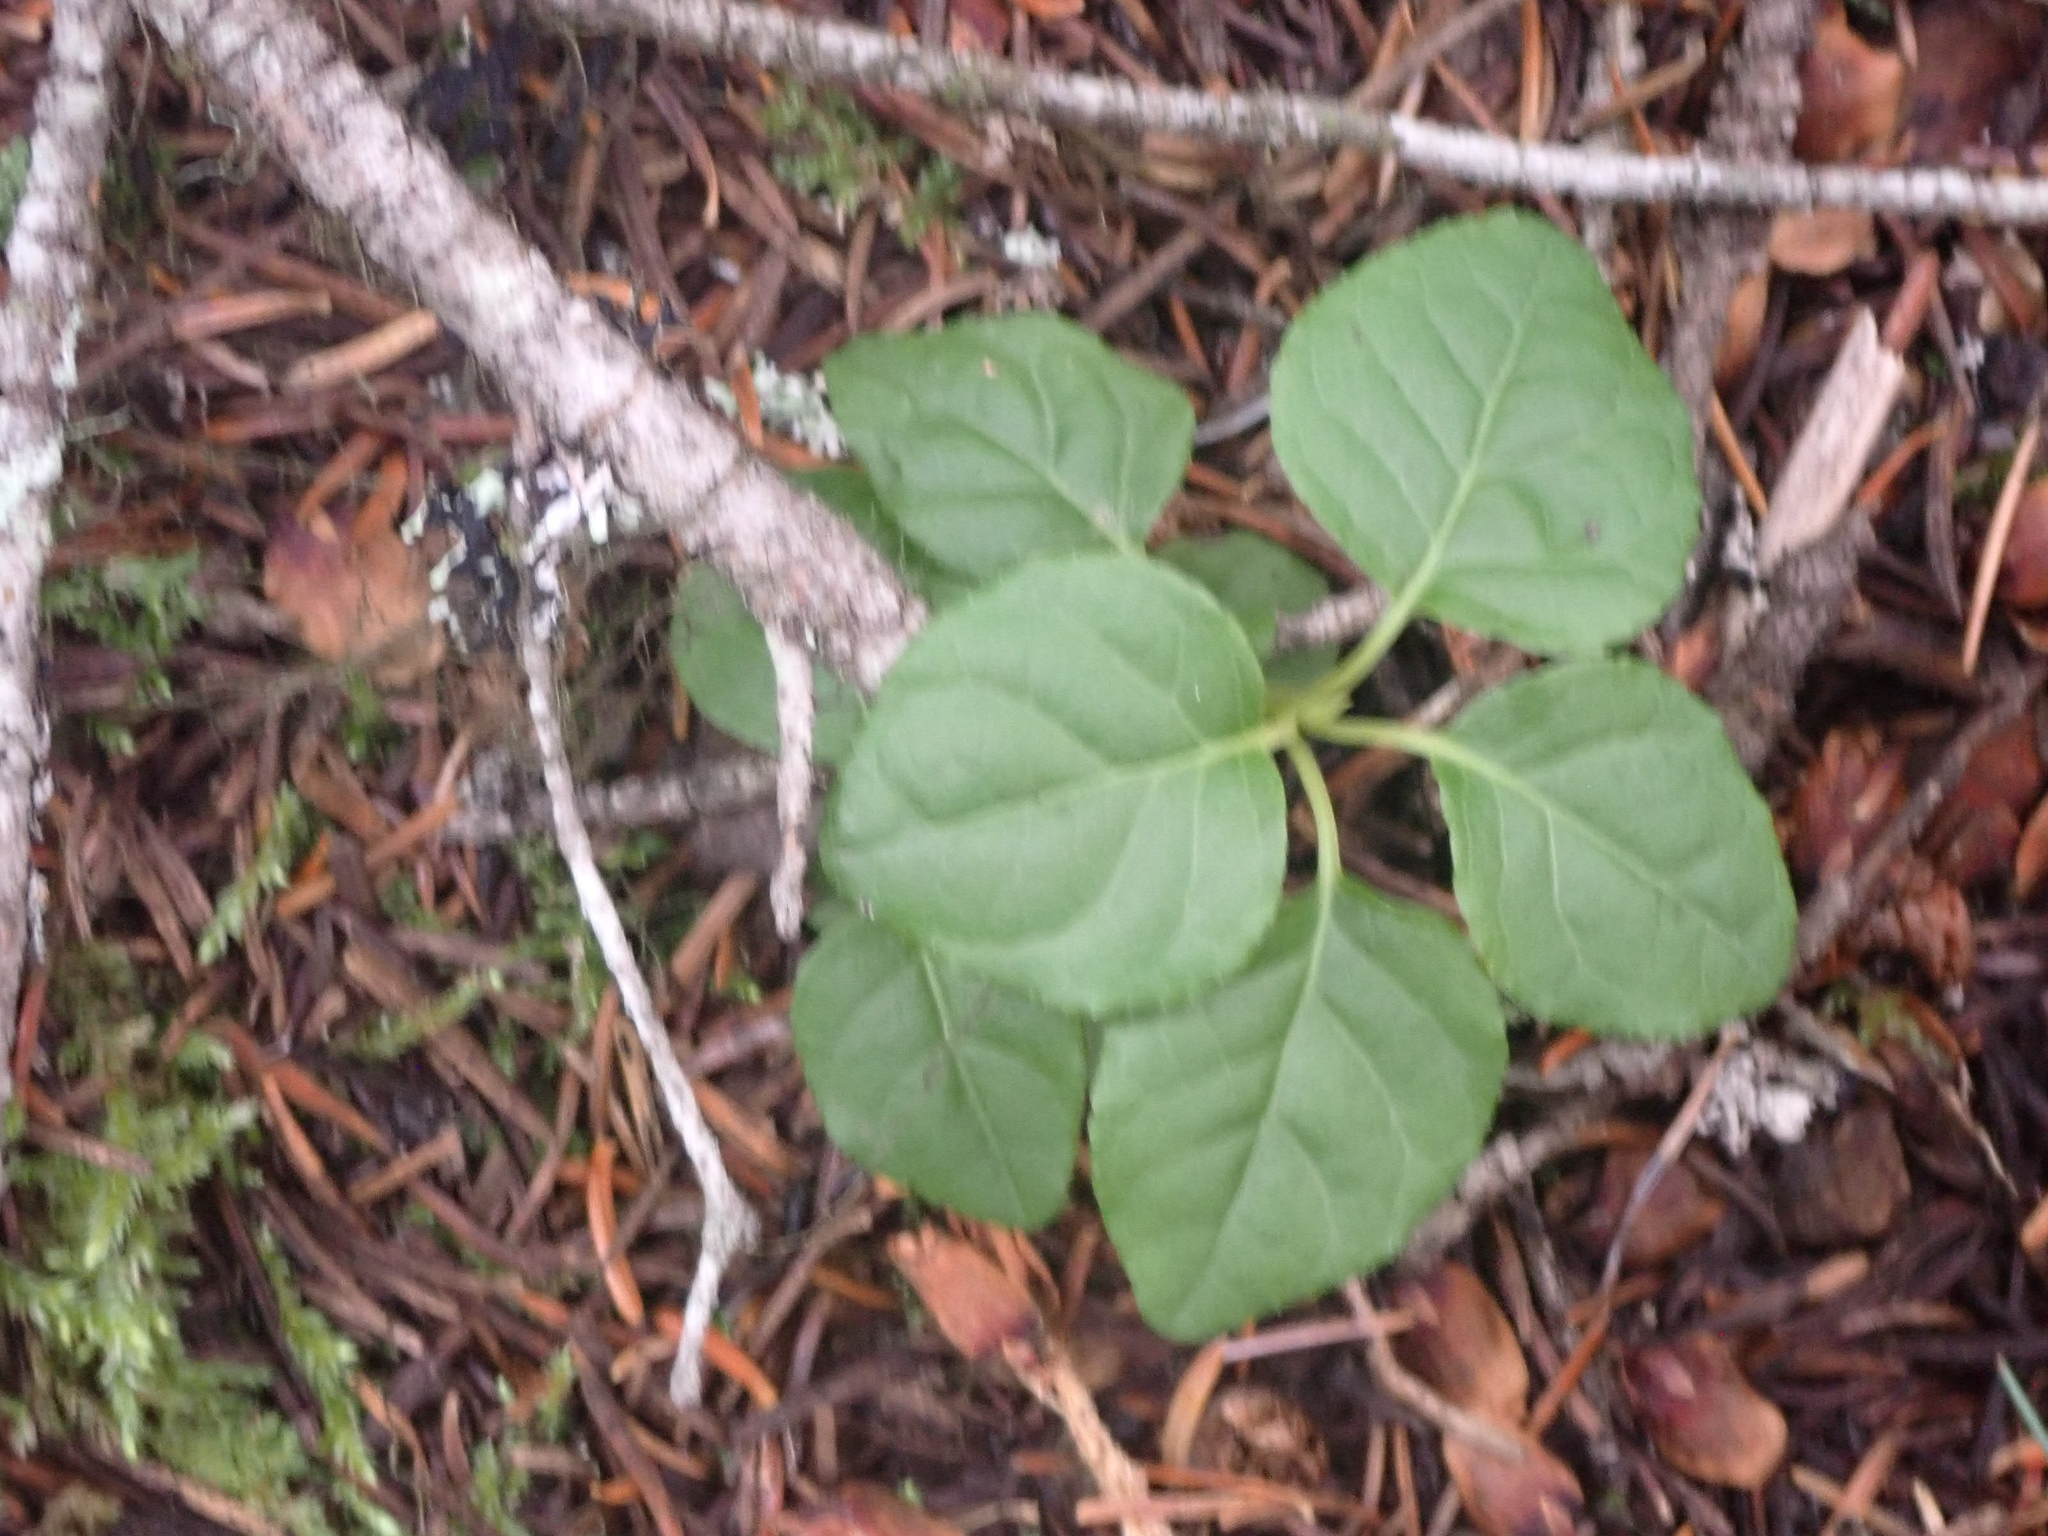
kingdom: Plantae
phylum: Tracheophyta
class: Magnoliopsida
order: Ericales
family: Ericaceae
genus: Orthilia
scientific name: Orthilia secunda
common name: One-sided orthilia
